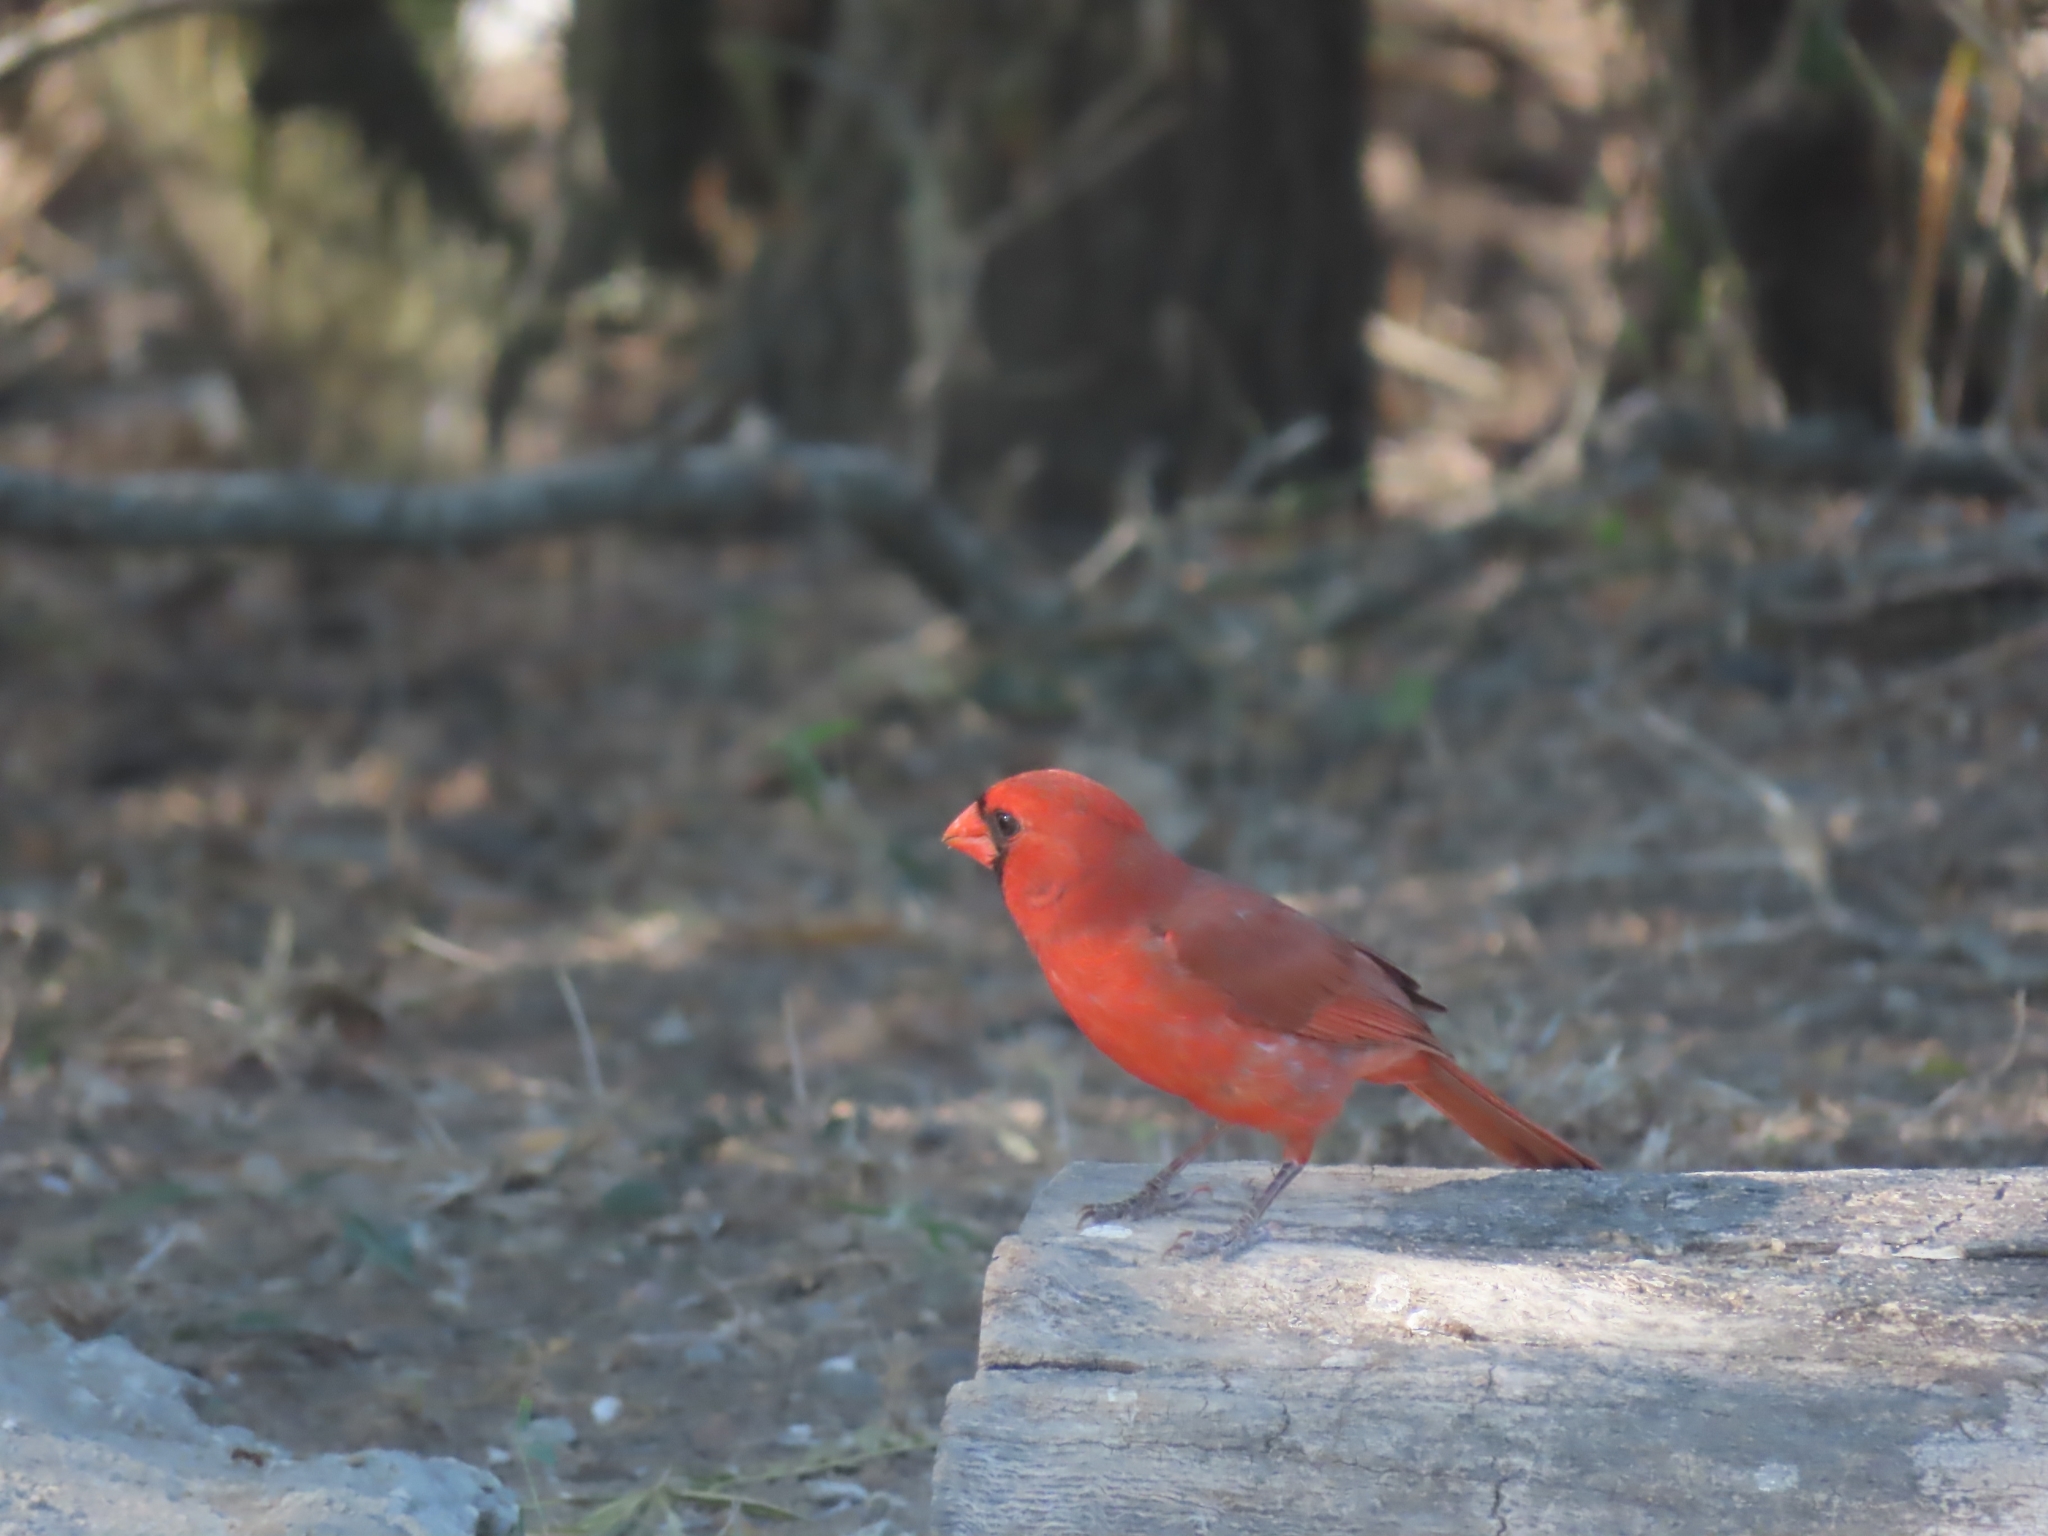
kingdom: Animalia
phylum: Chordata
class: Aves
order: Passeriformes
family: Cardinalidae
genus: Cardinalis
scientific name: Cardinalis cardinalis
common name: Northern cardinal
